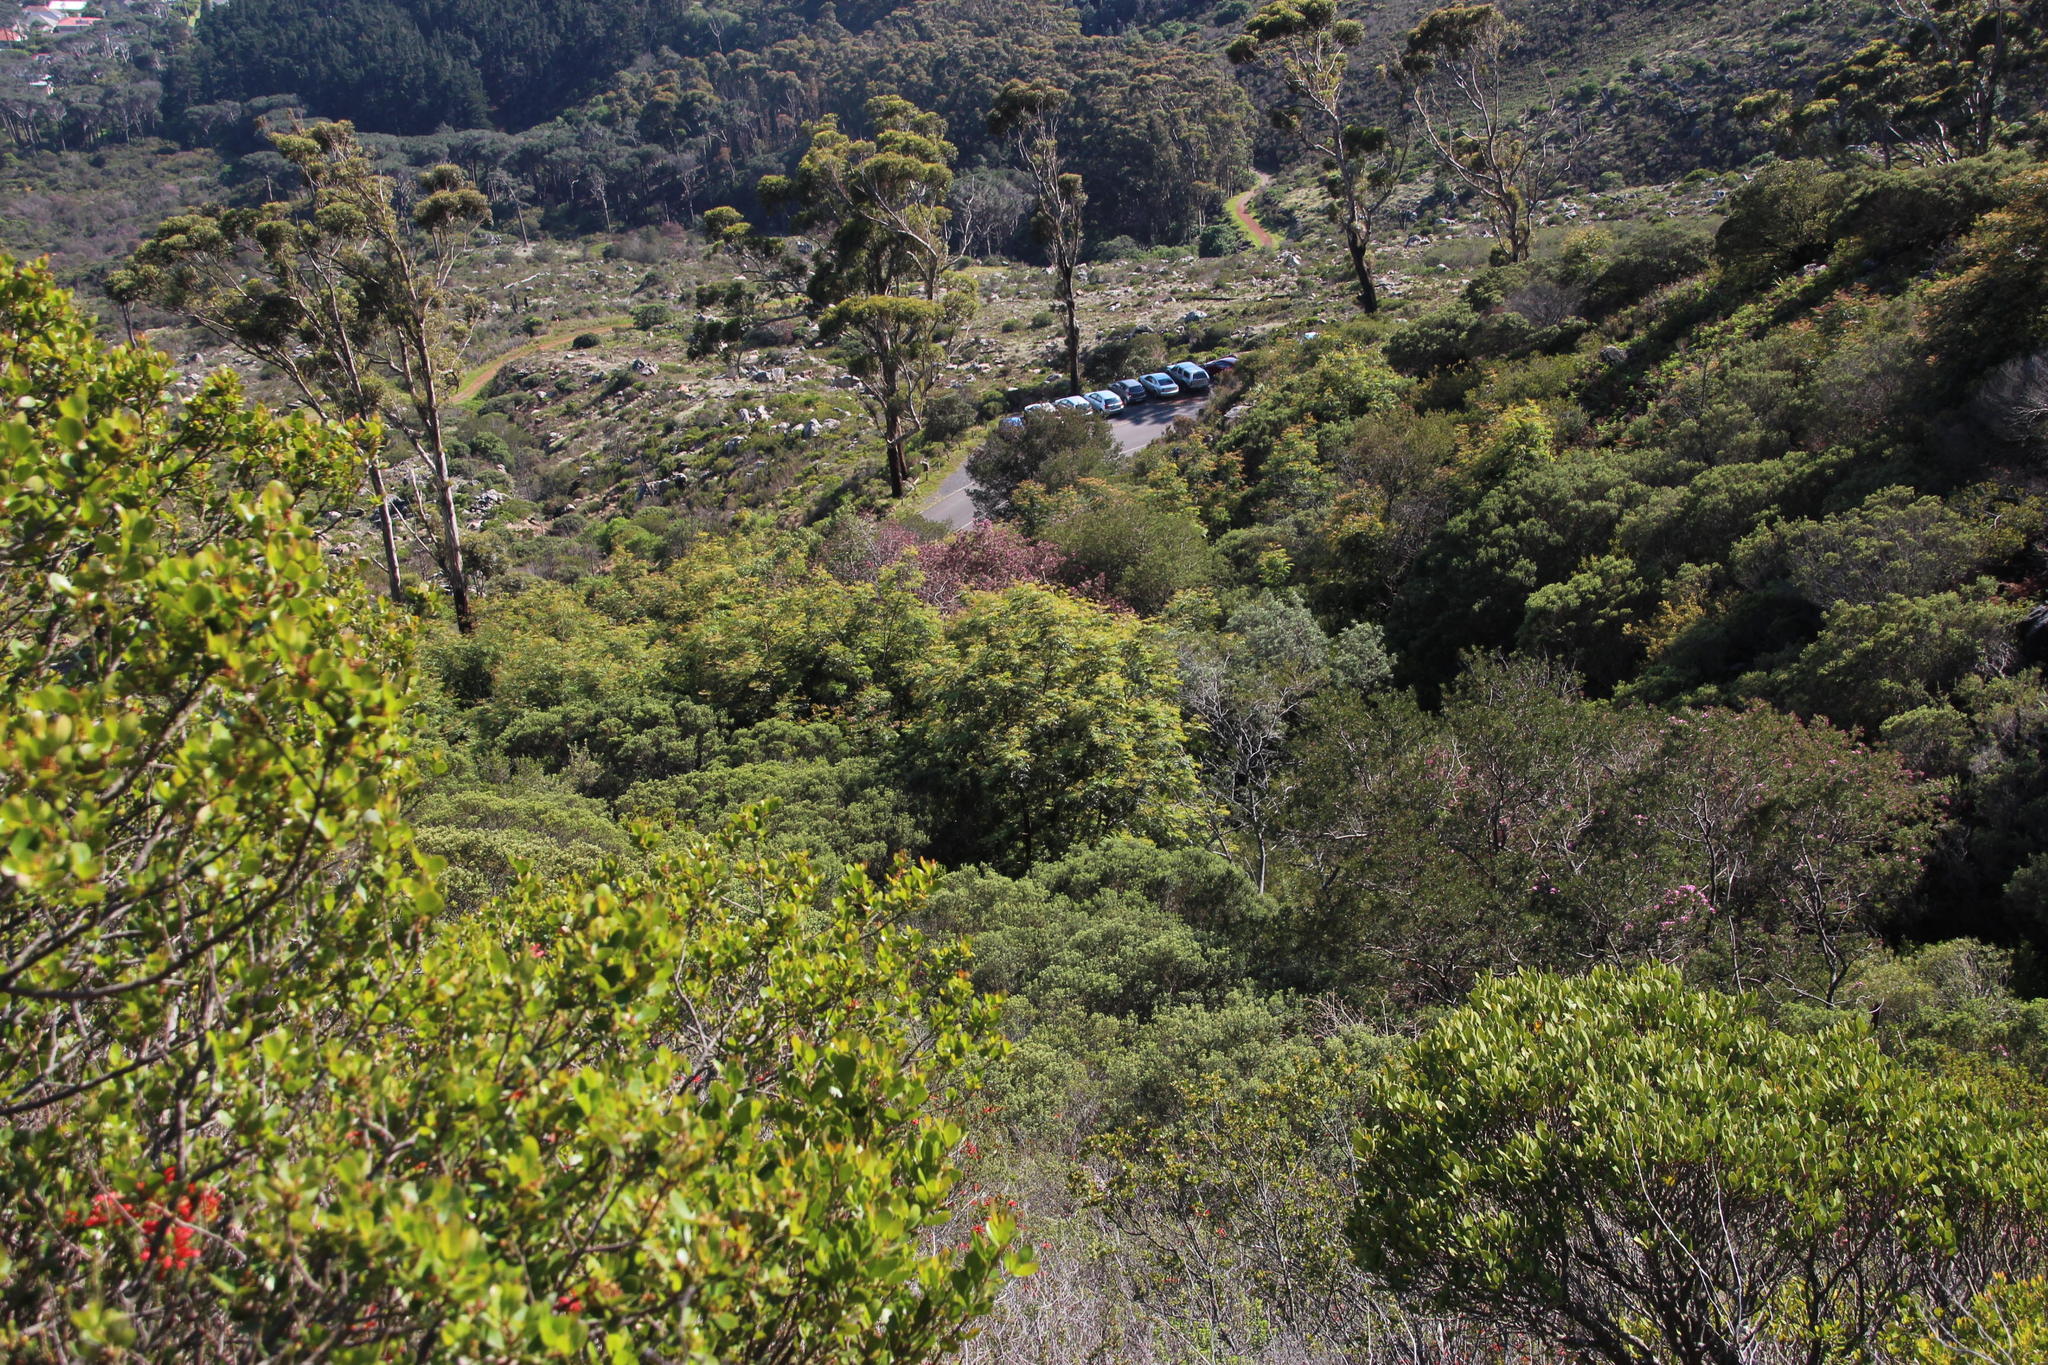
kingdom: Plantae
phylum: Tracheophyta
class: Magnoliopsida
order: Fabales
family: Fabaceae
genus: Acacia
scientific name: Acacia elata
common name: Cedar wattle
